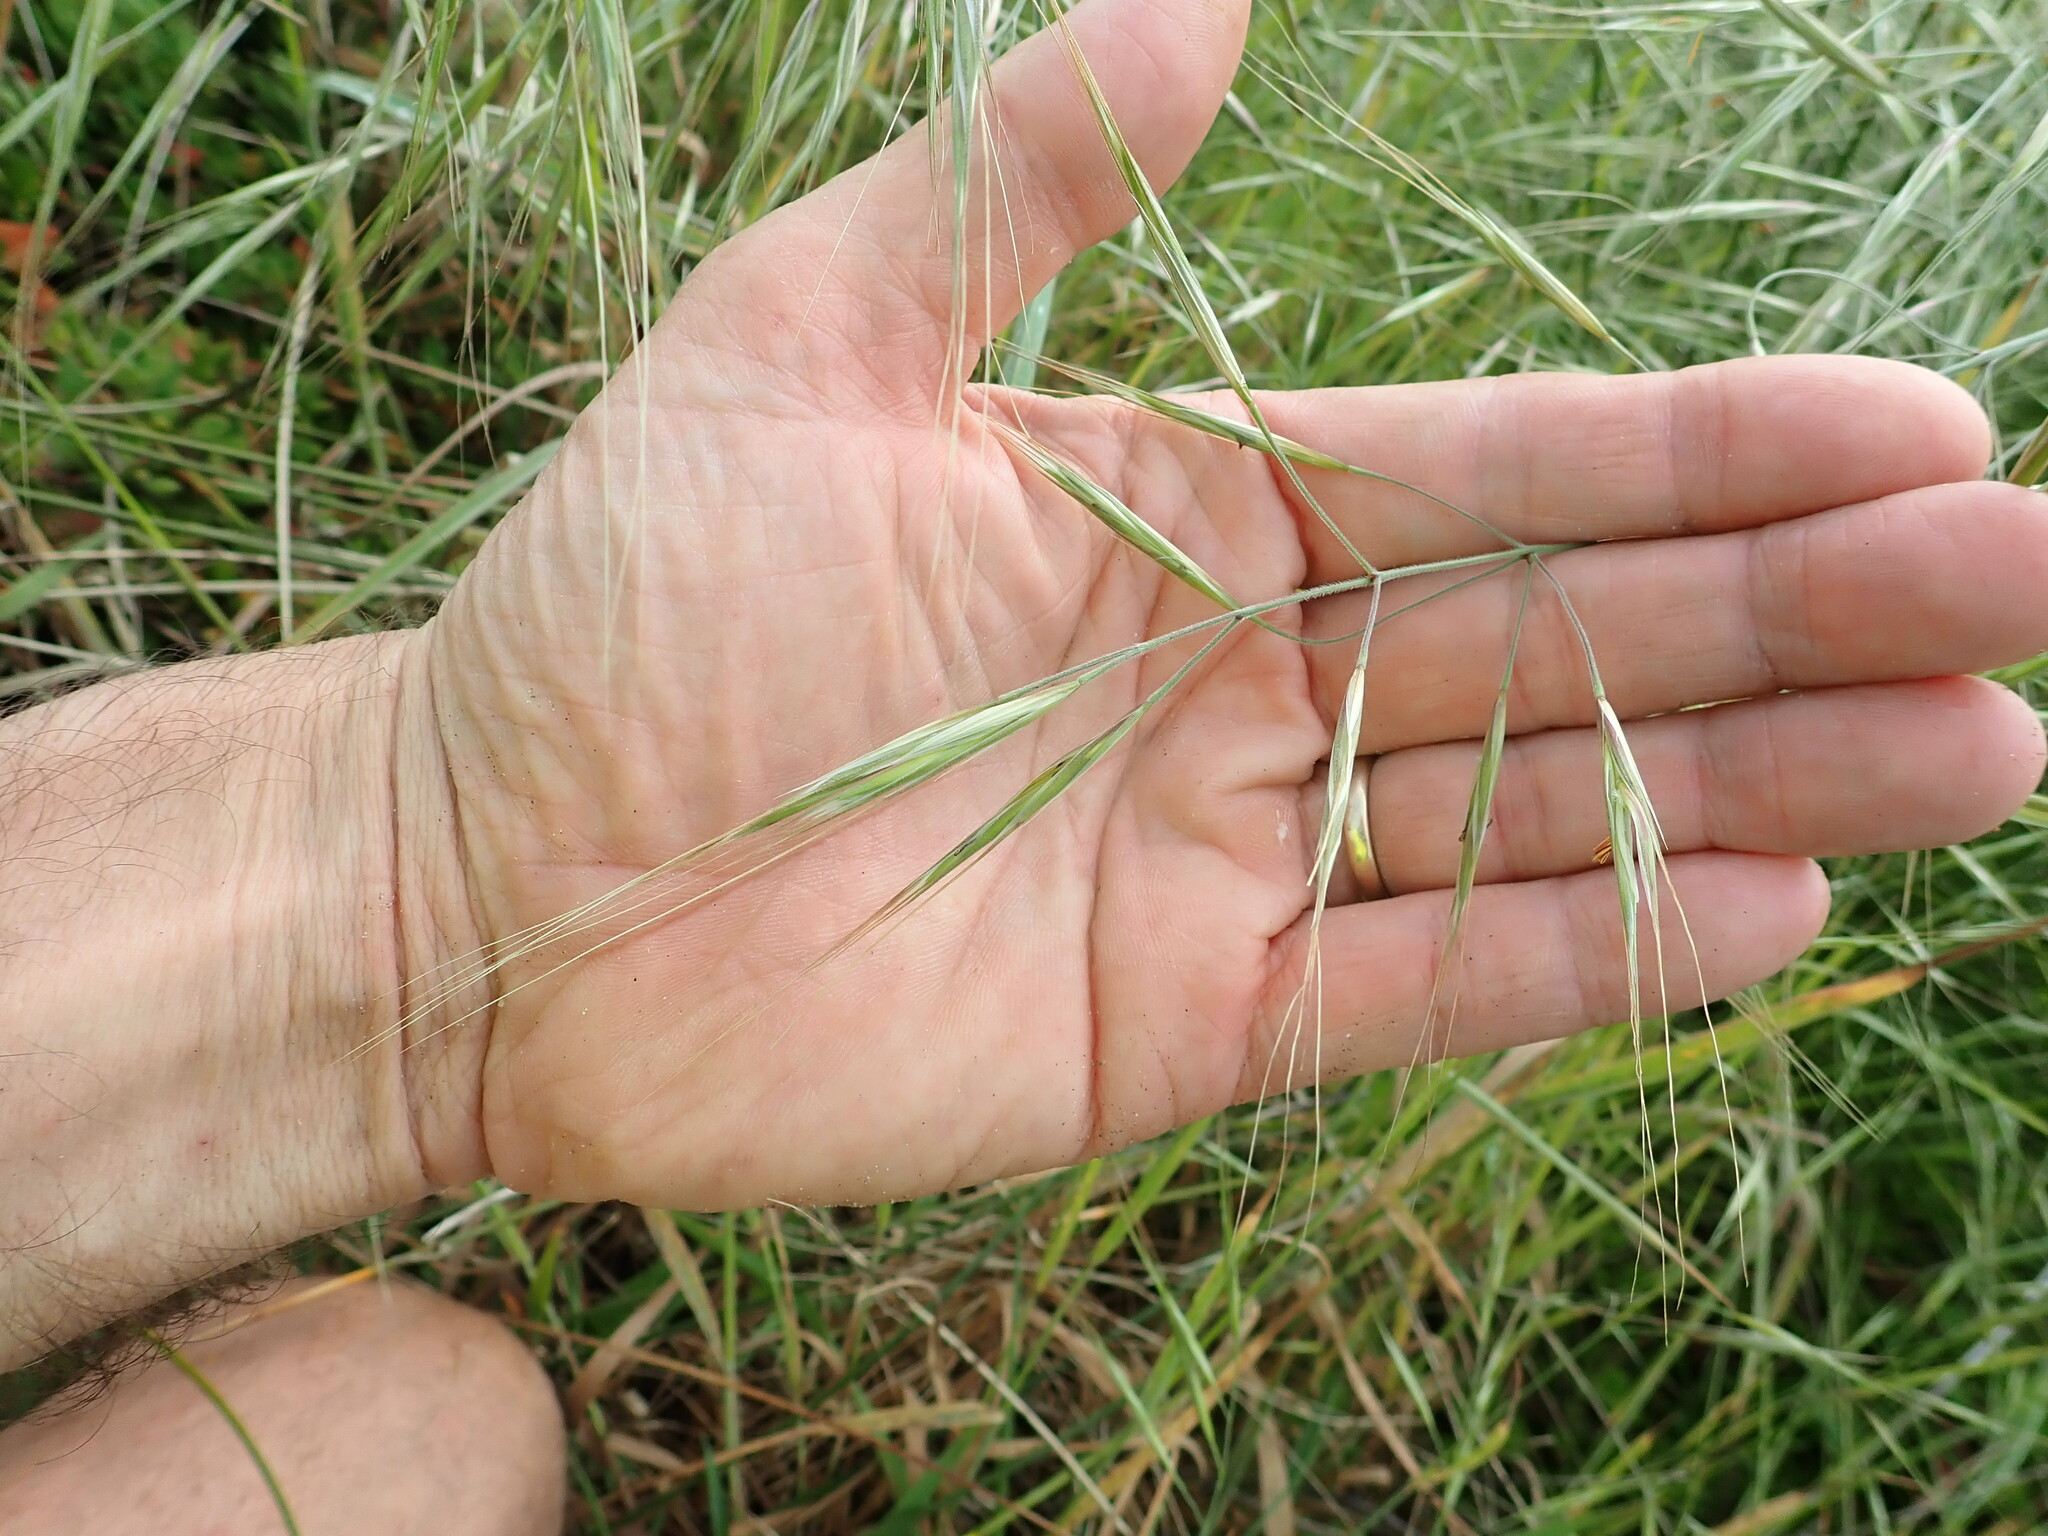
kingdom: Plantae
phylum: Tracheophyta
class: Liliopsida
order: Poales
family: Poaceae
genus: Bromus
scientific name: Bromus diandrus
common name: Ripgut brome
